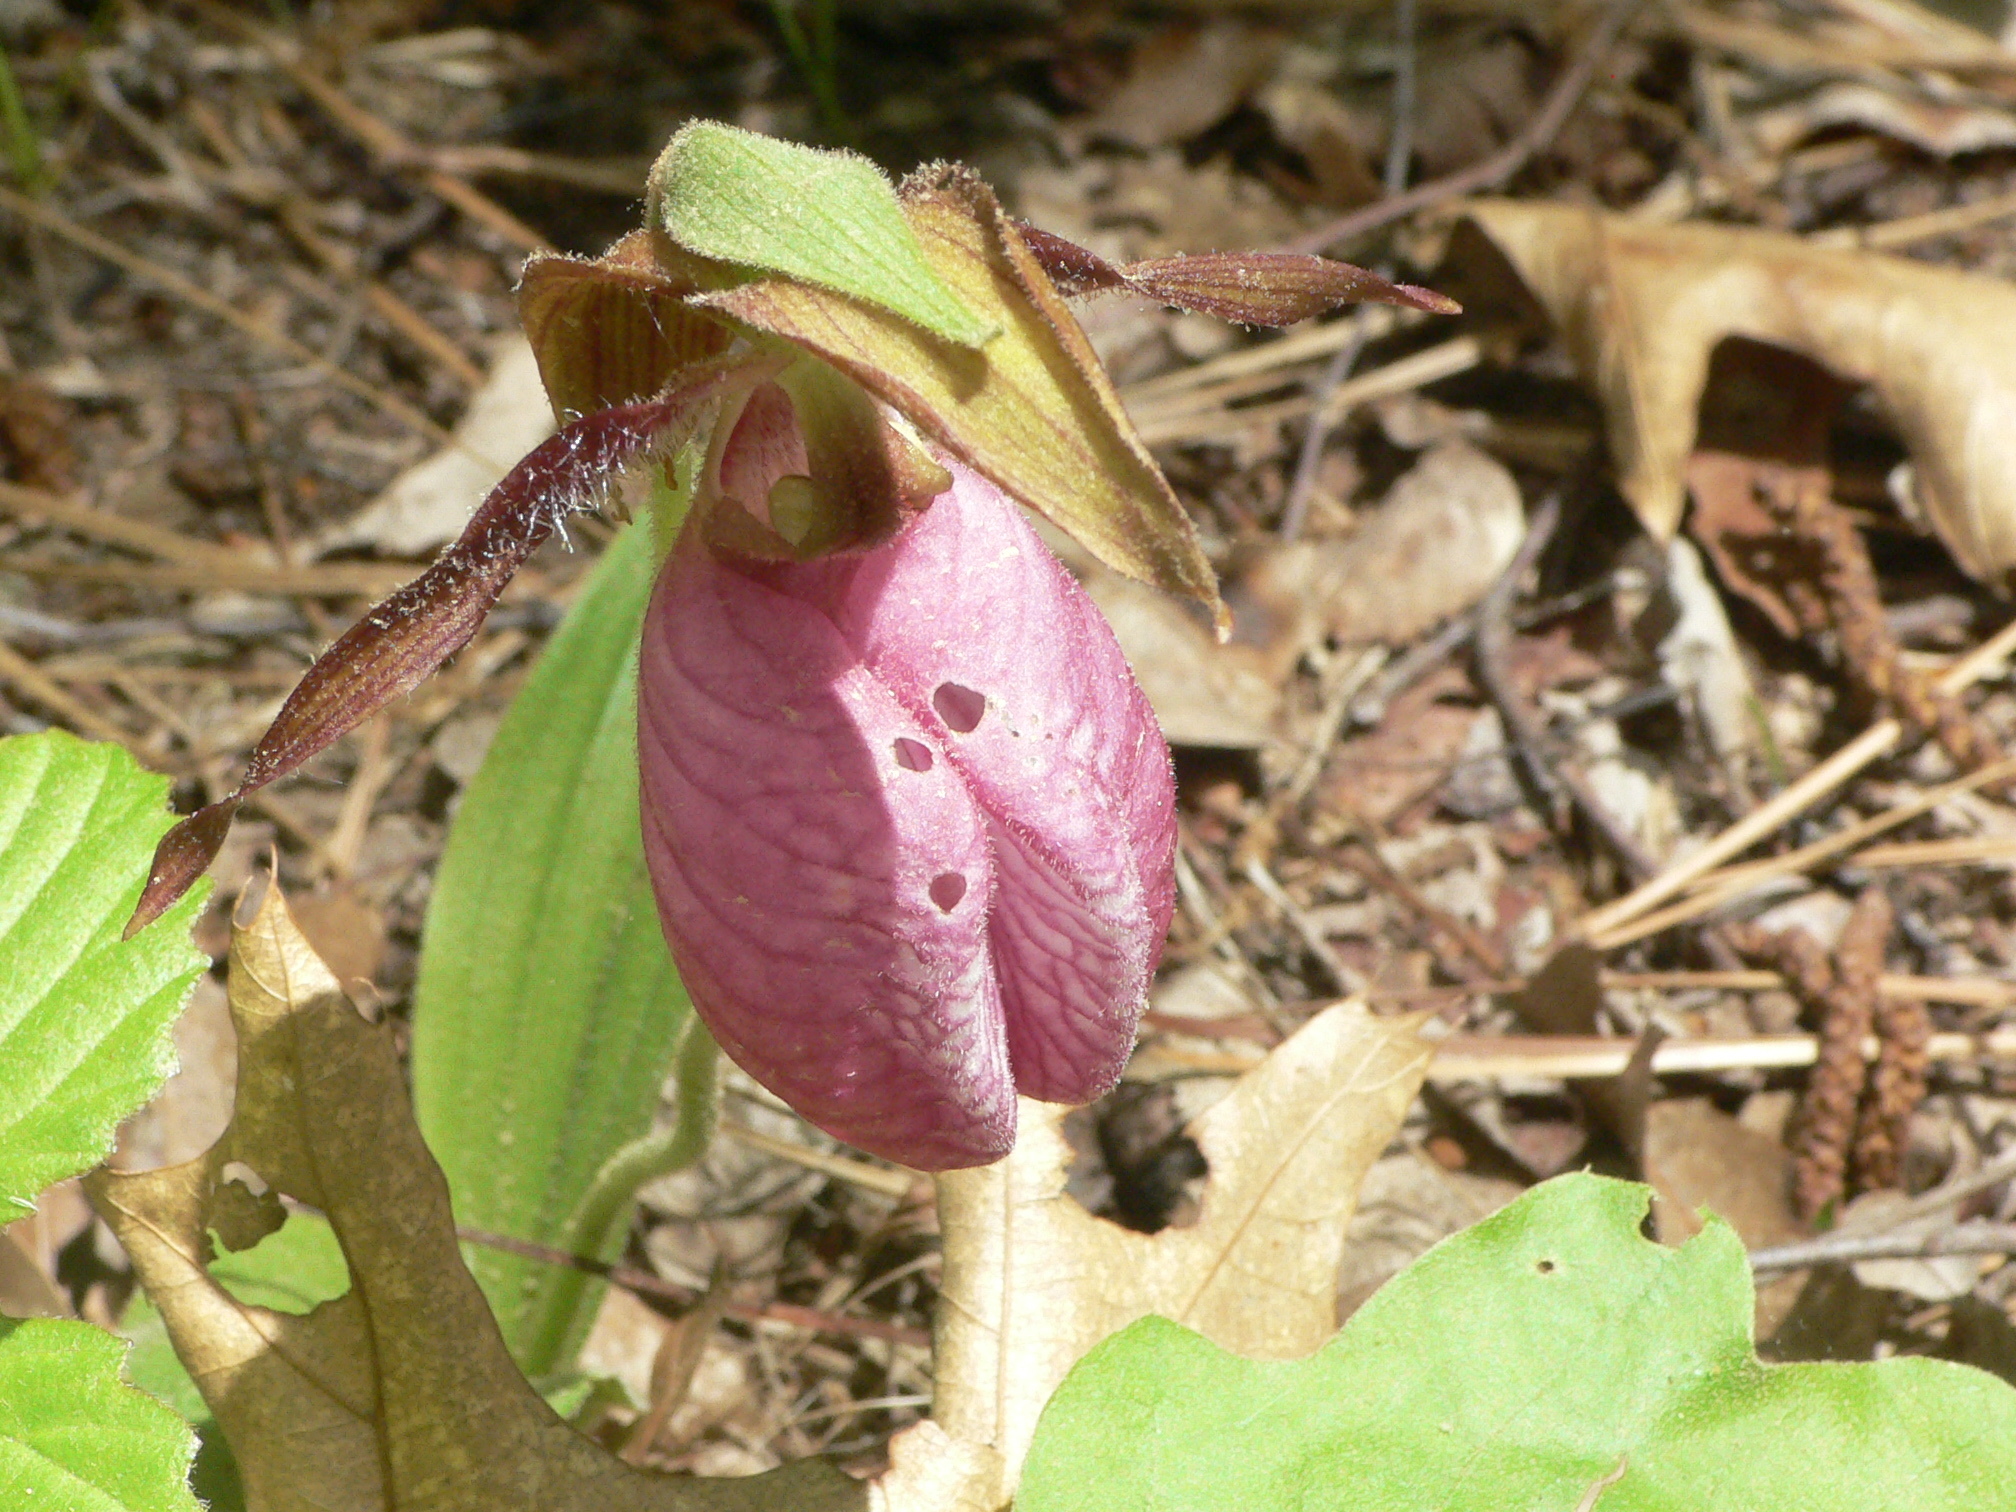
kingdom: Plantae
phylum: Tracheophyta
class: Liliopsida
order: Asparagales
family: Orchidaceae
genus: Cypripedium
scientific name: Cypripedium acaule
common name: Pink lady's-slipper
